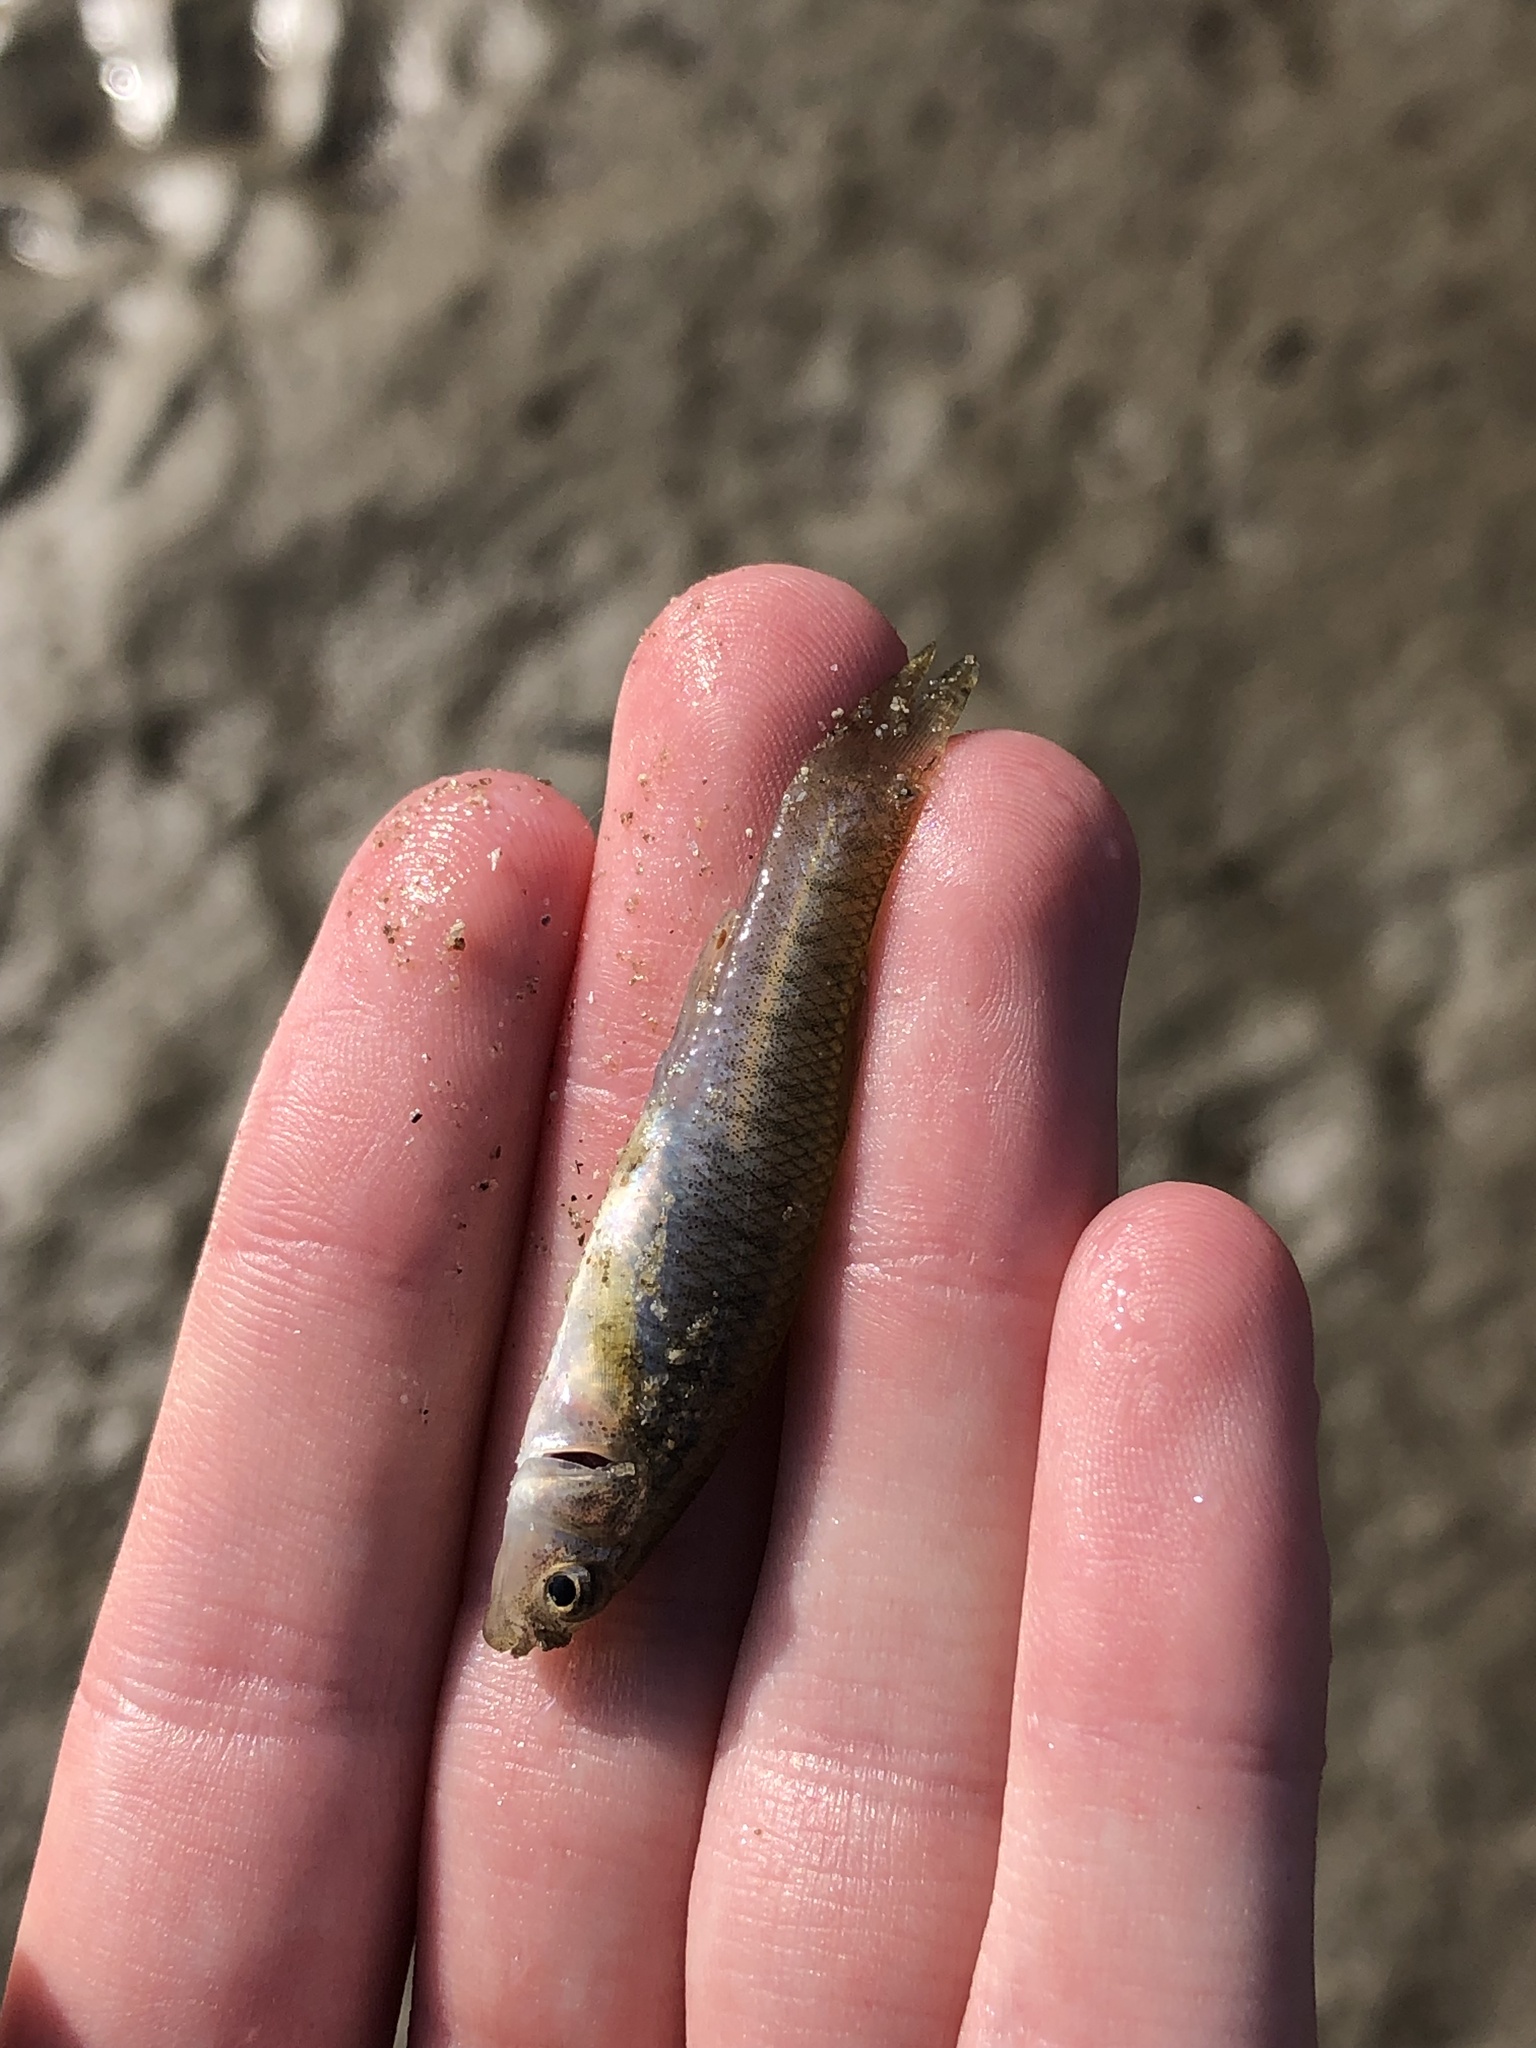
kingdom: Animalia
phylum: Chordata
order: Cyprinodontiformes
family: Fundulidae
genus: Fundulus
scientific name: Fundulus heteroclitus
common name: Mummichog
